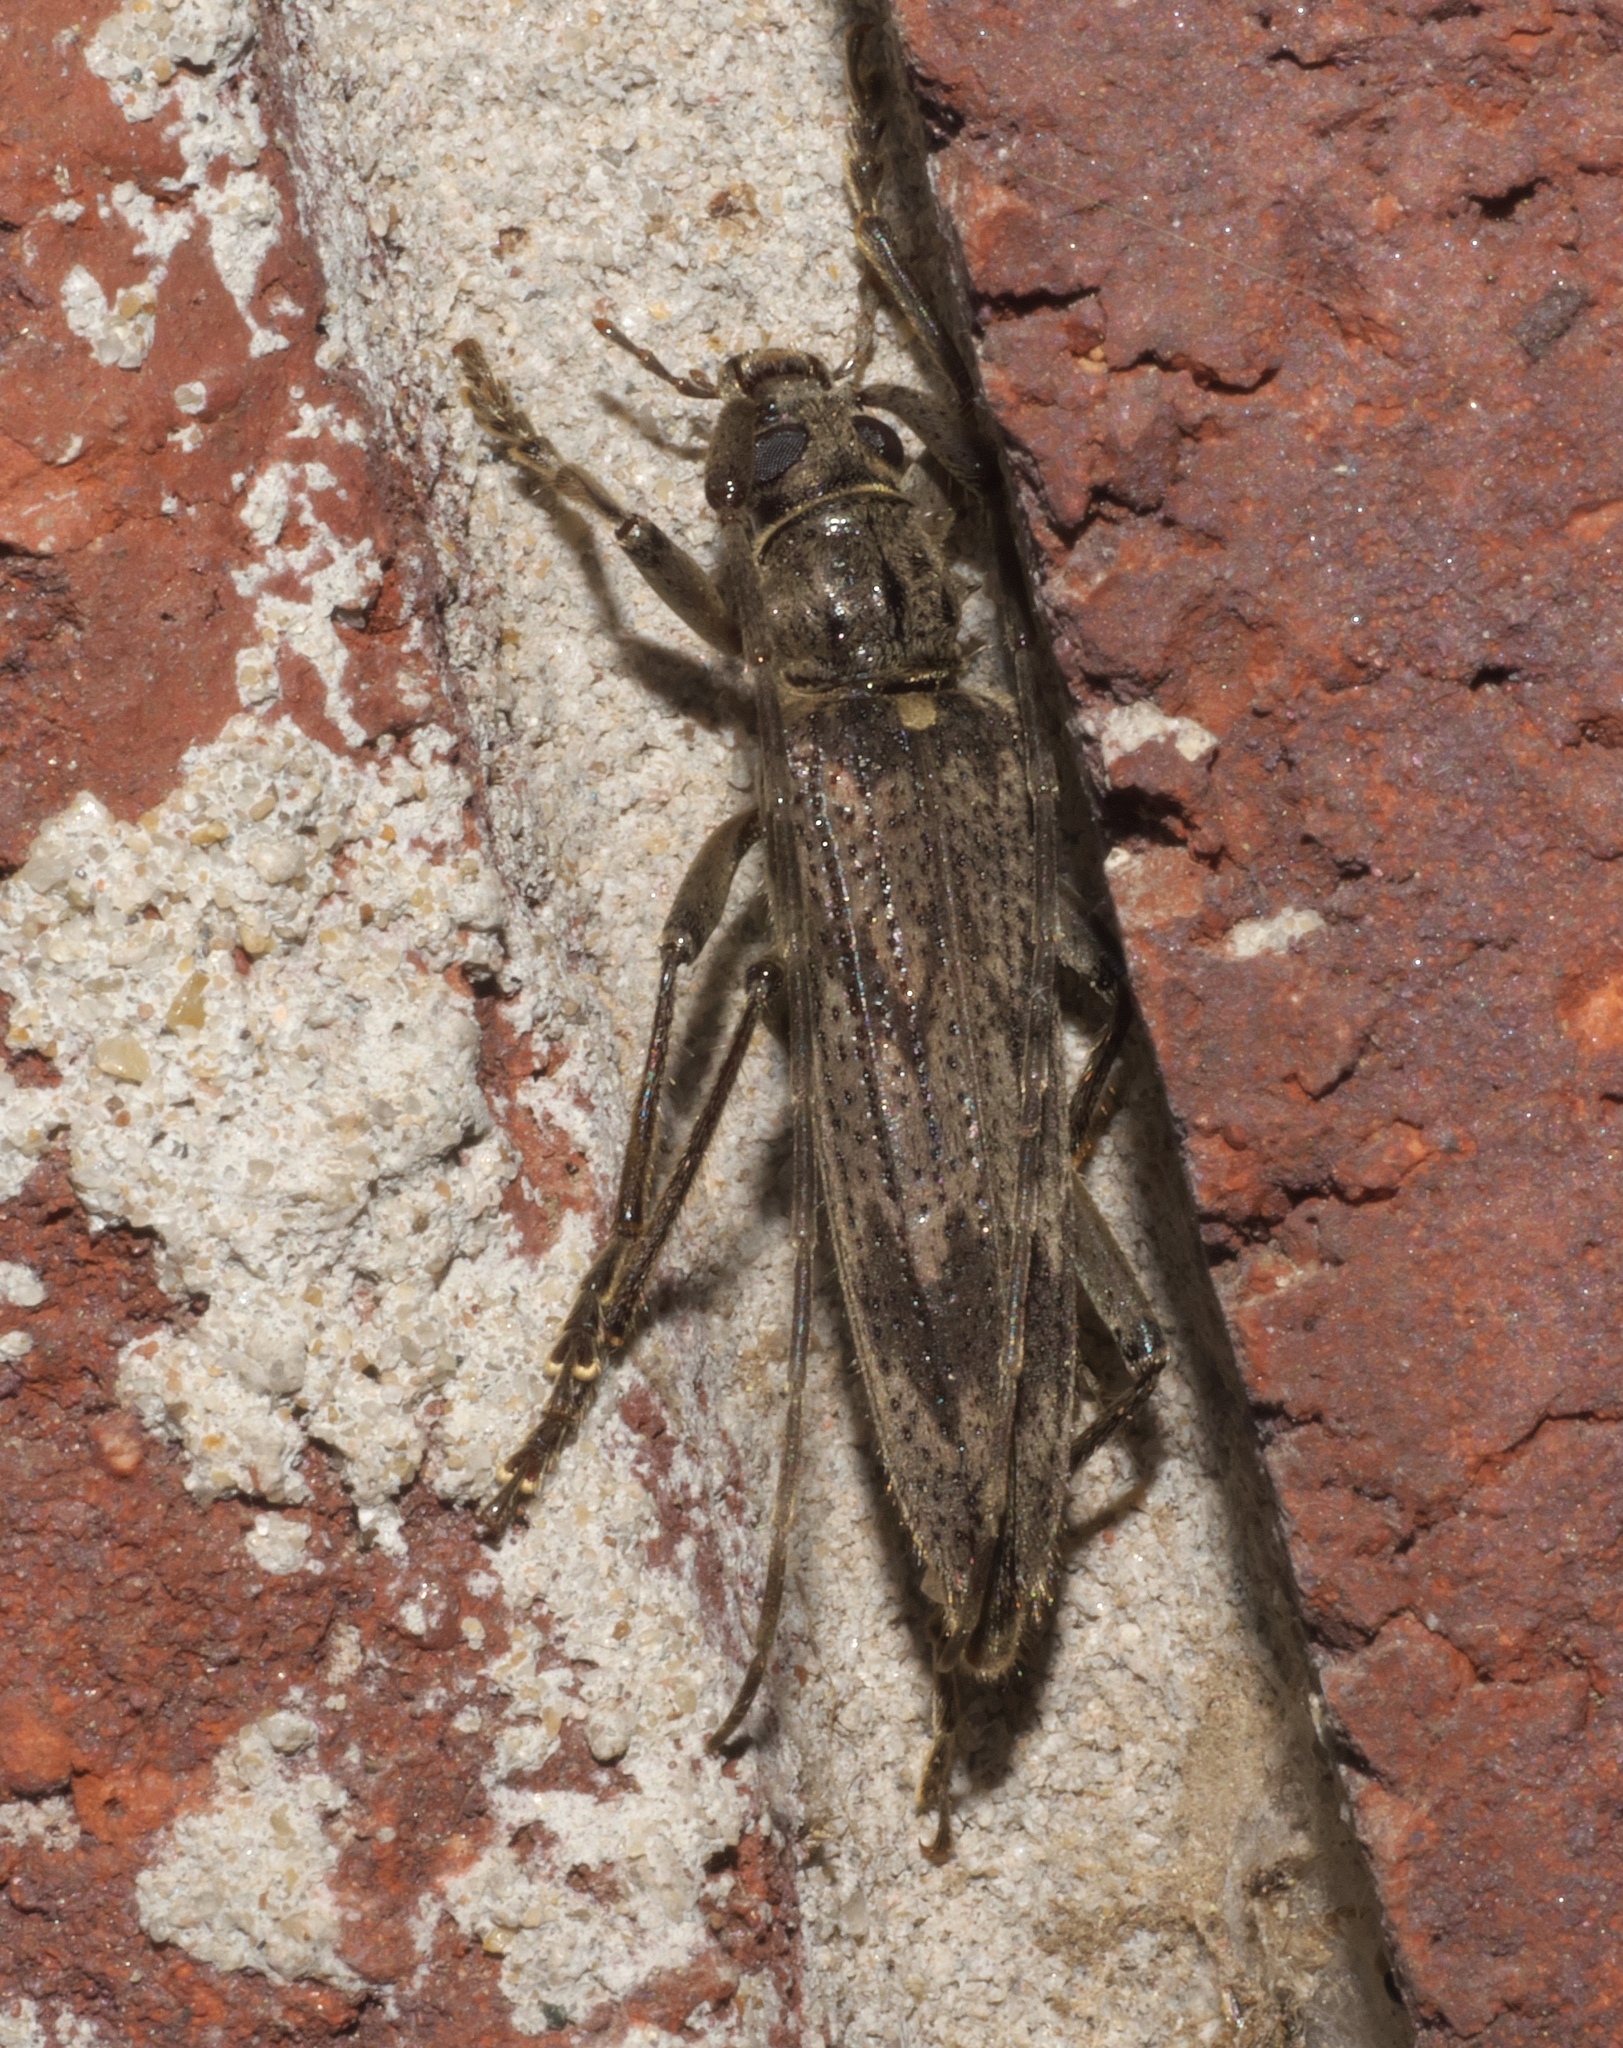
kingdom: Animalia
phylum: Arthropoda
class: Insecta
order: Coleoptera
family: Cerambycidae
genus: Elytrimitatrix
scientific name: Elytrimitatrix undata
